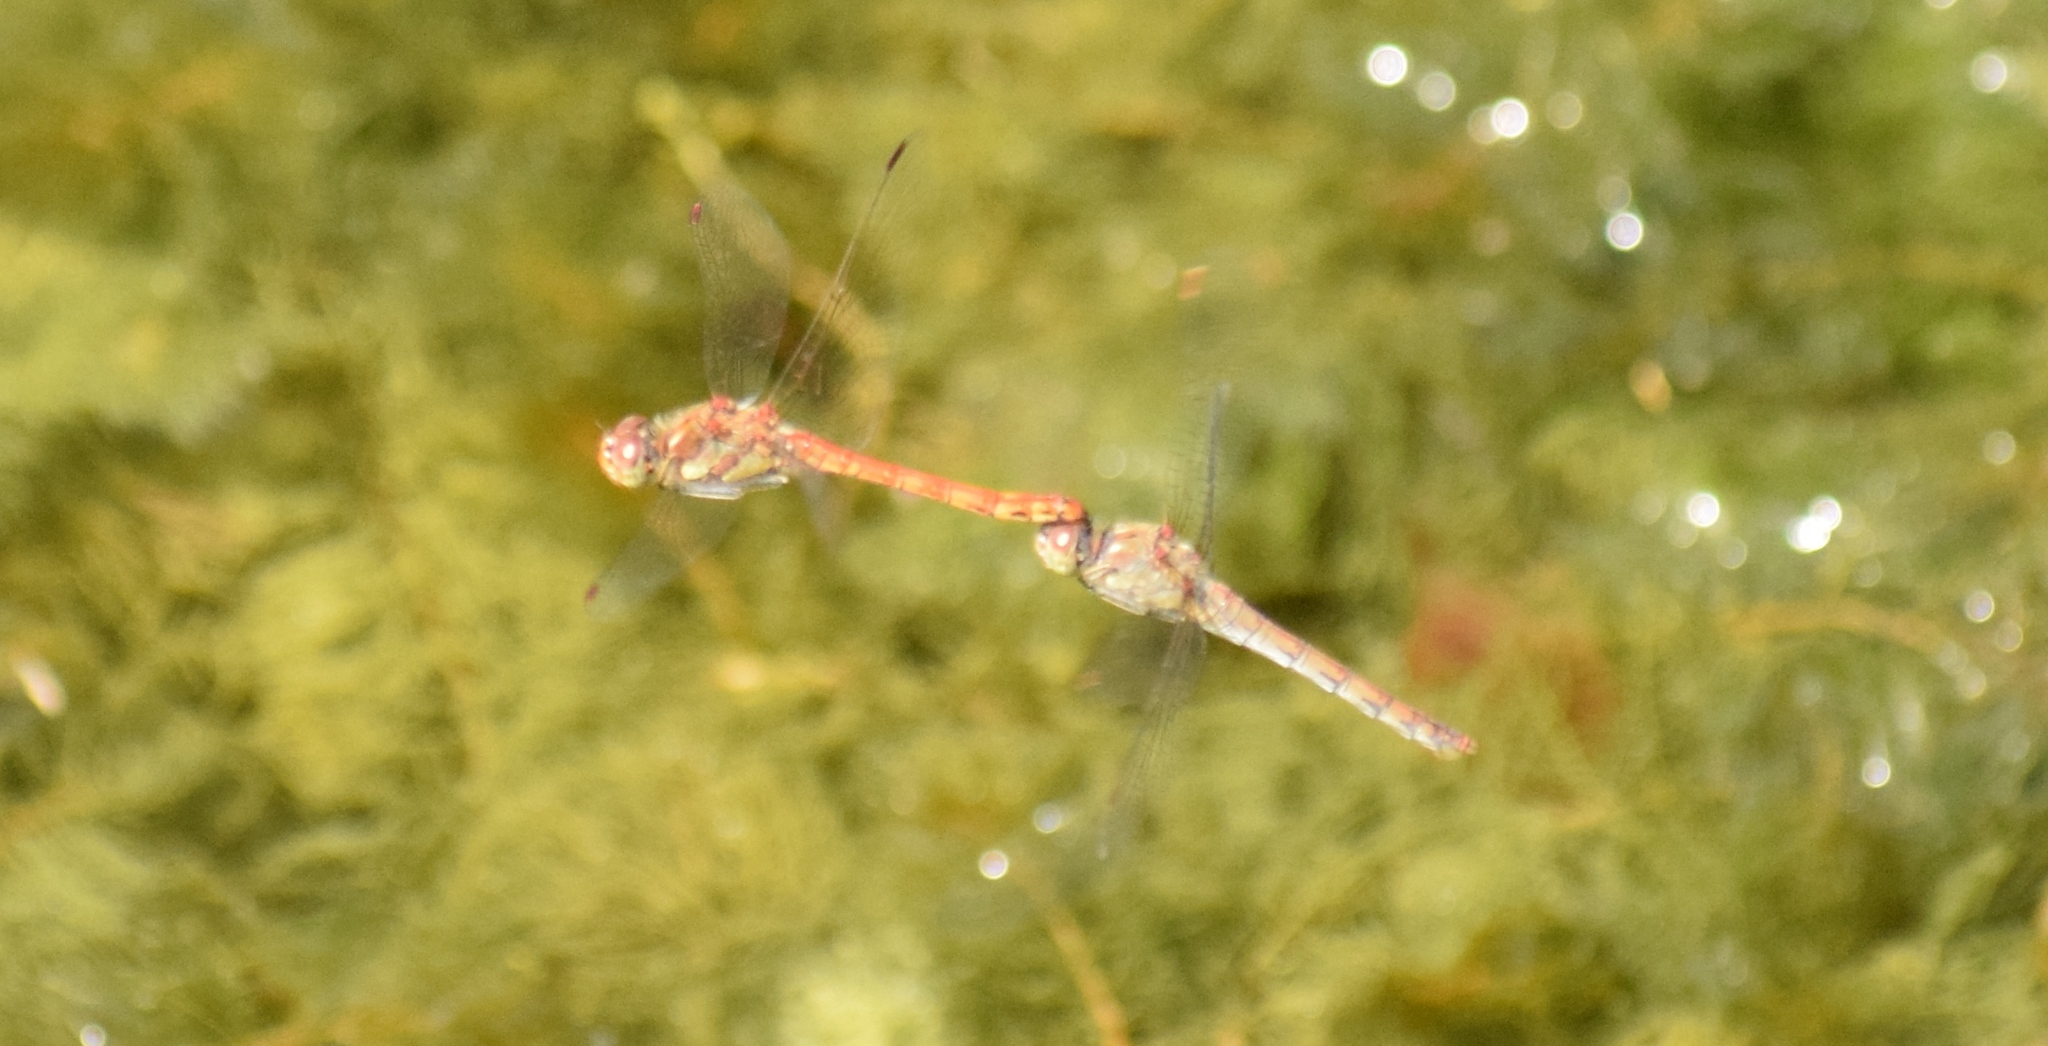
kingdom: Animalia
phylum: Arthropoda
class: Insecta
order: Odonata
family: Libellulidae
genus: Sympetrum
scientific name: Sympetrum striolatum
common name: Common darter
